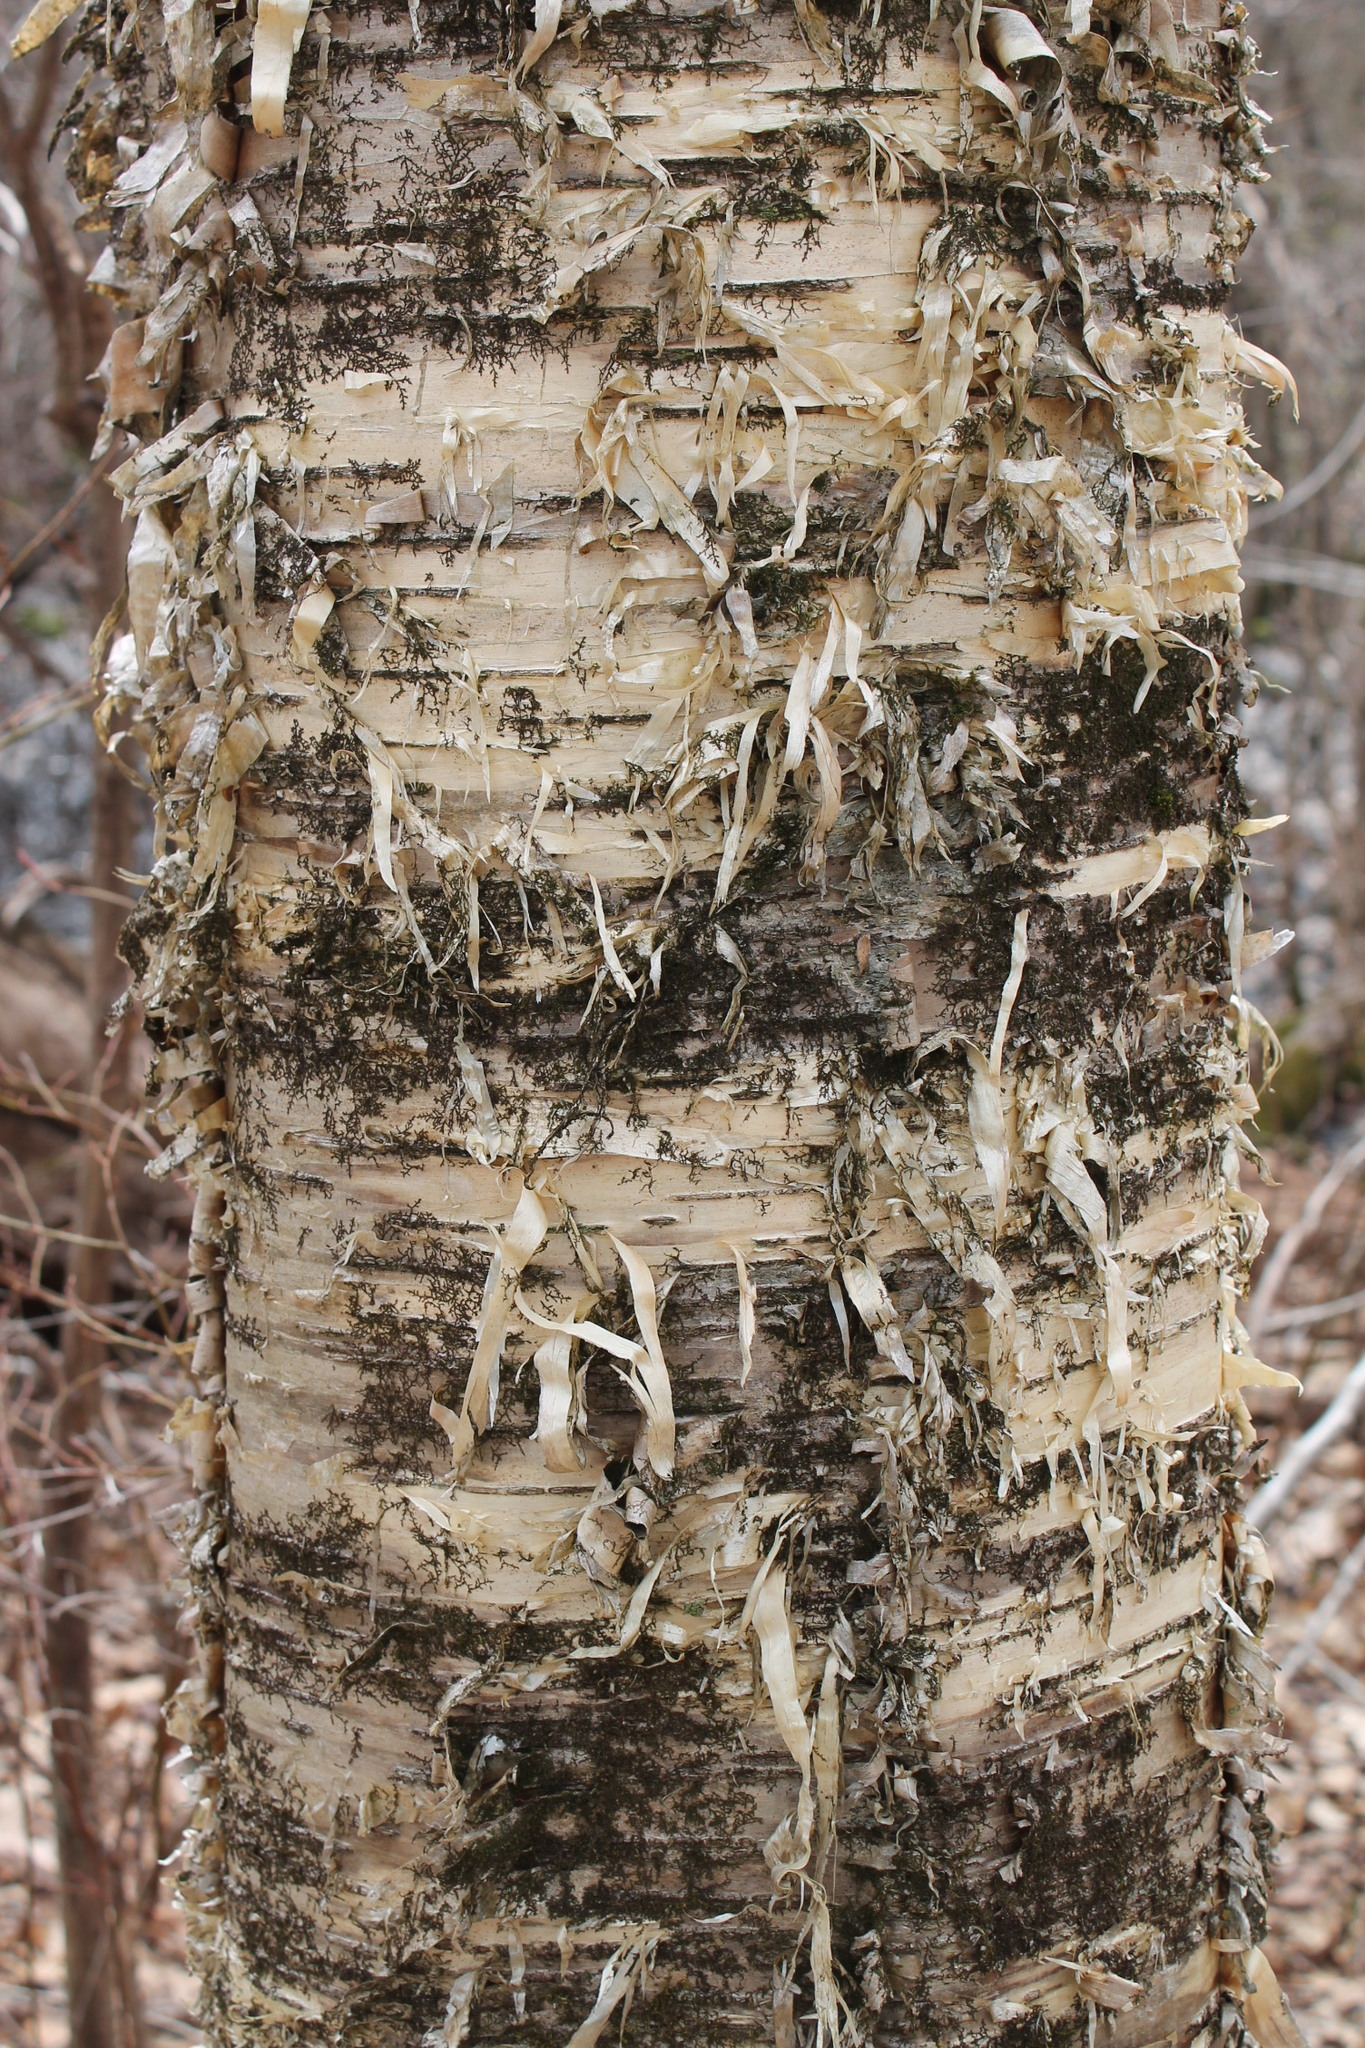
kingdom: Plantae
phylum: Tracheophyta
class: Magnoliopsida
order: Fagales
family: Betulaceae
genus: Betula
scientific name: Betula alleghaniensis
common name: Yellow birch
